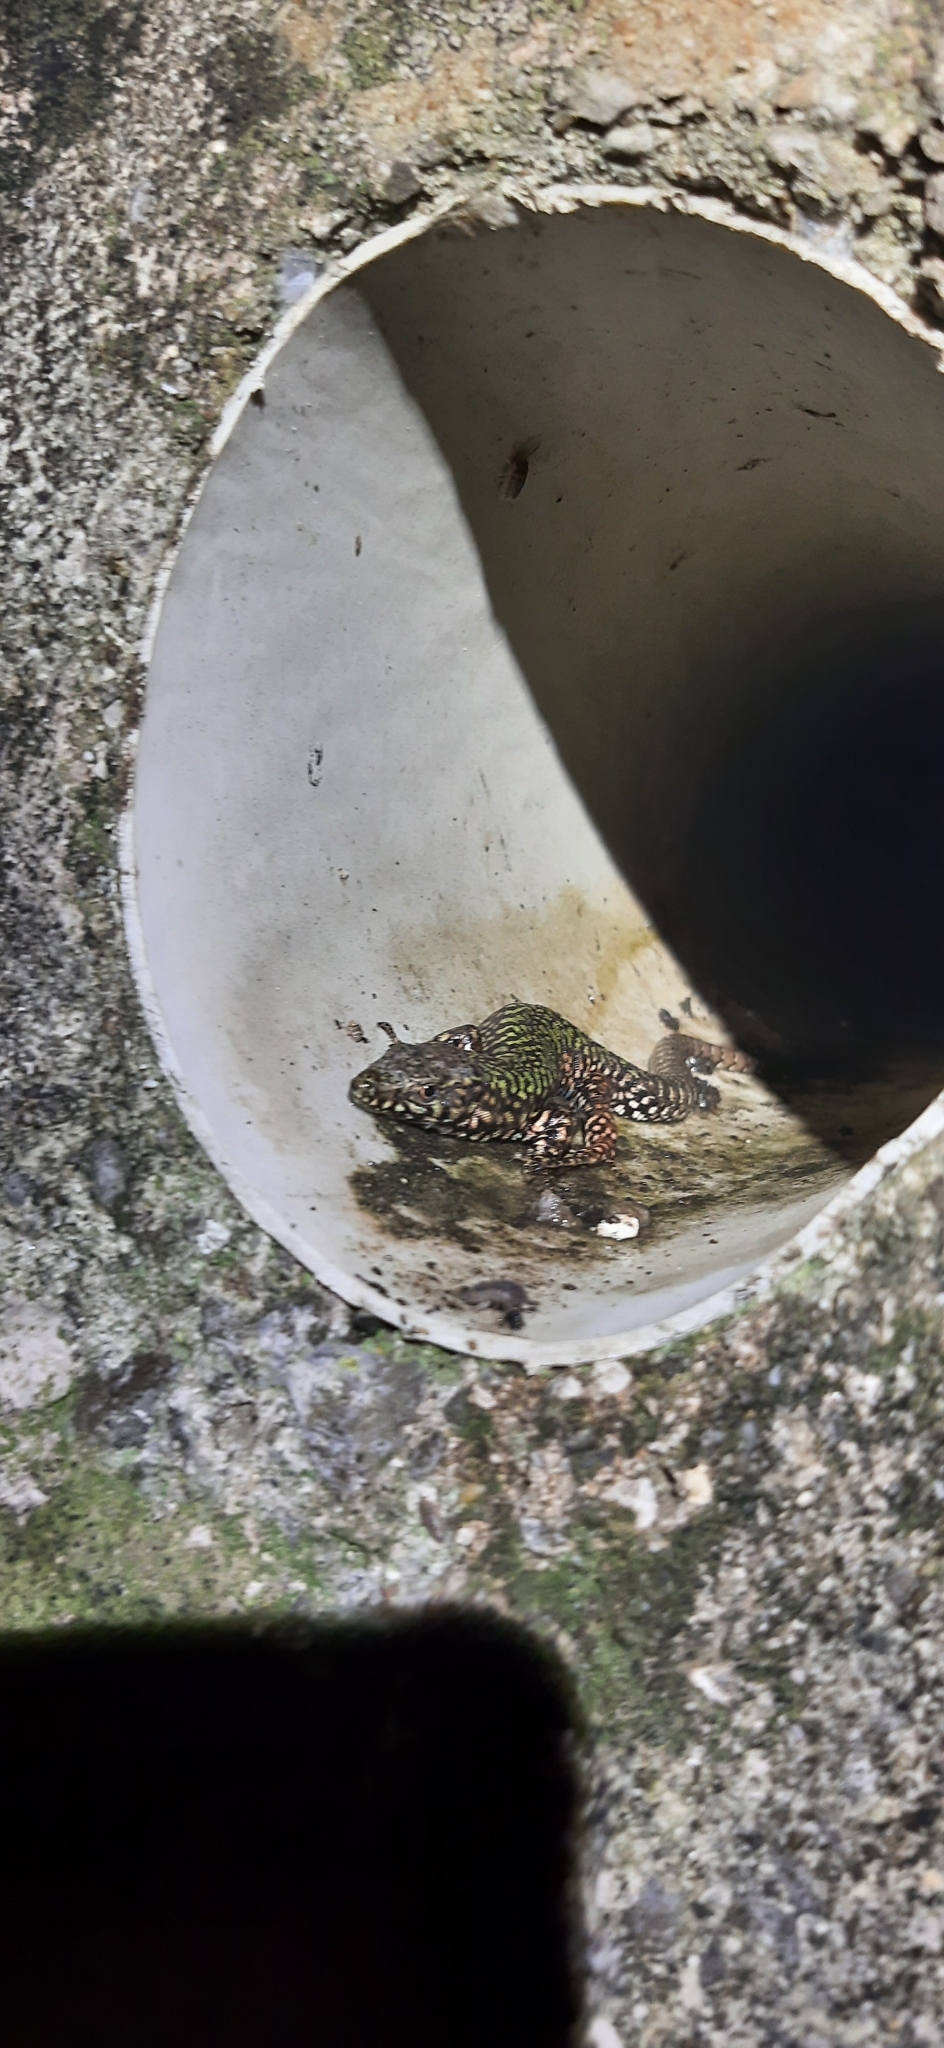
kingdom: Animalia
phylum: Chordata
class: Squamata
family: Lacertidae
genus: Podarcis
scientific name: Podarcis muralis
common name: Common wall lizard
